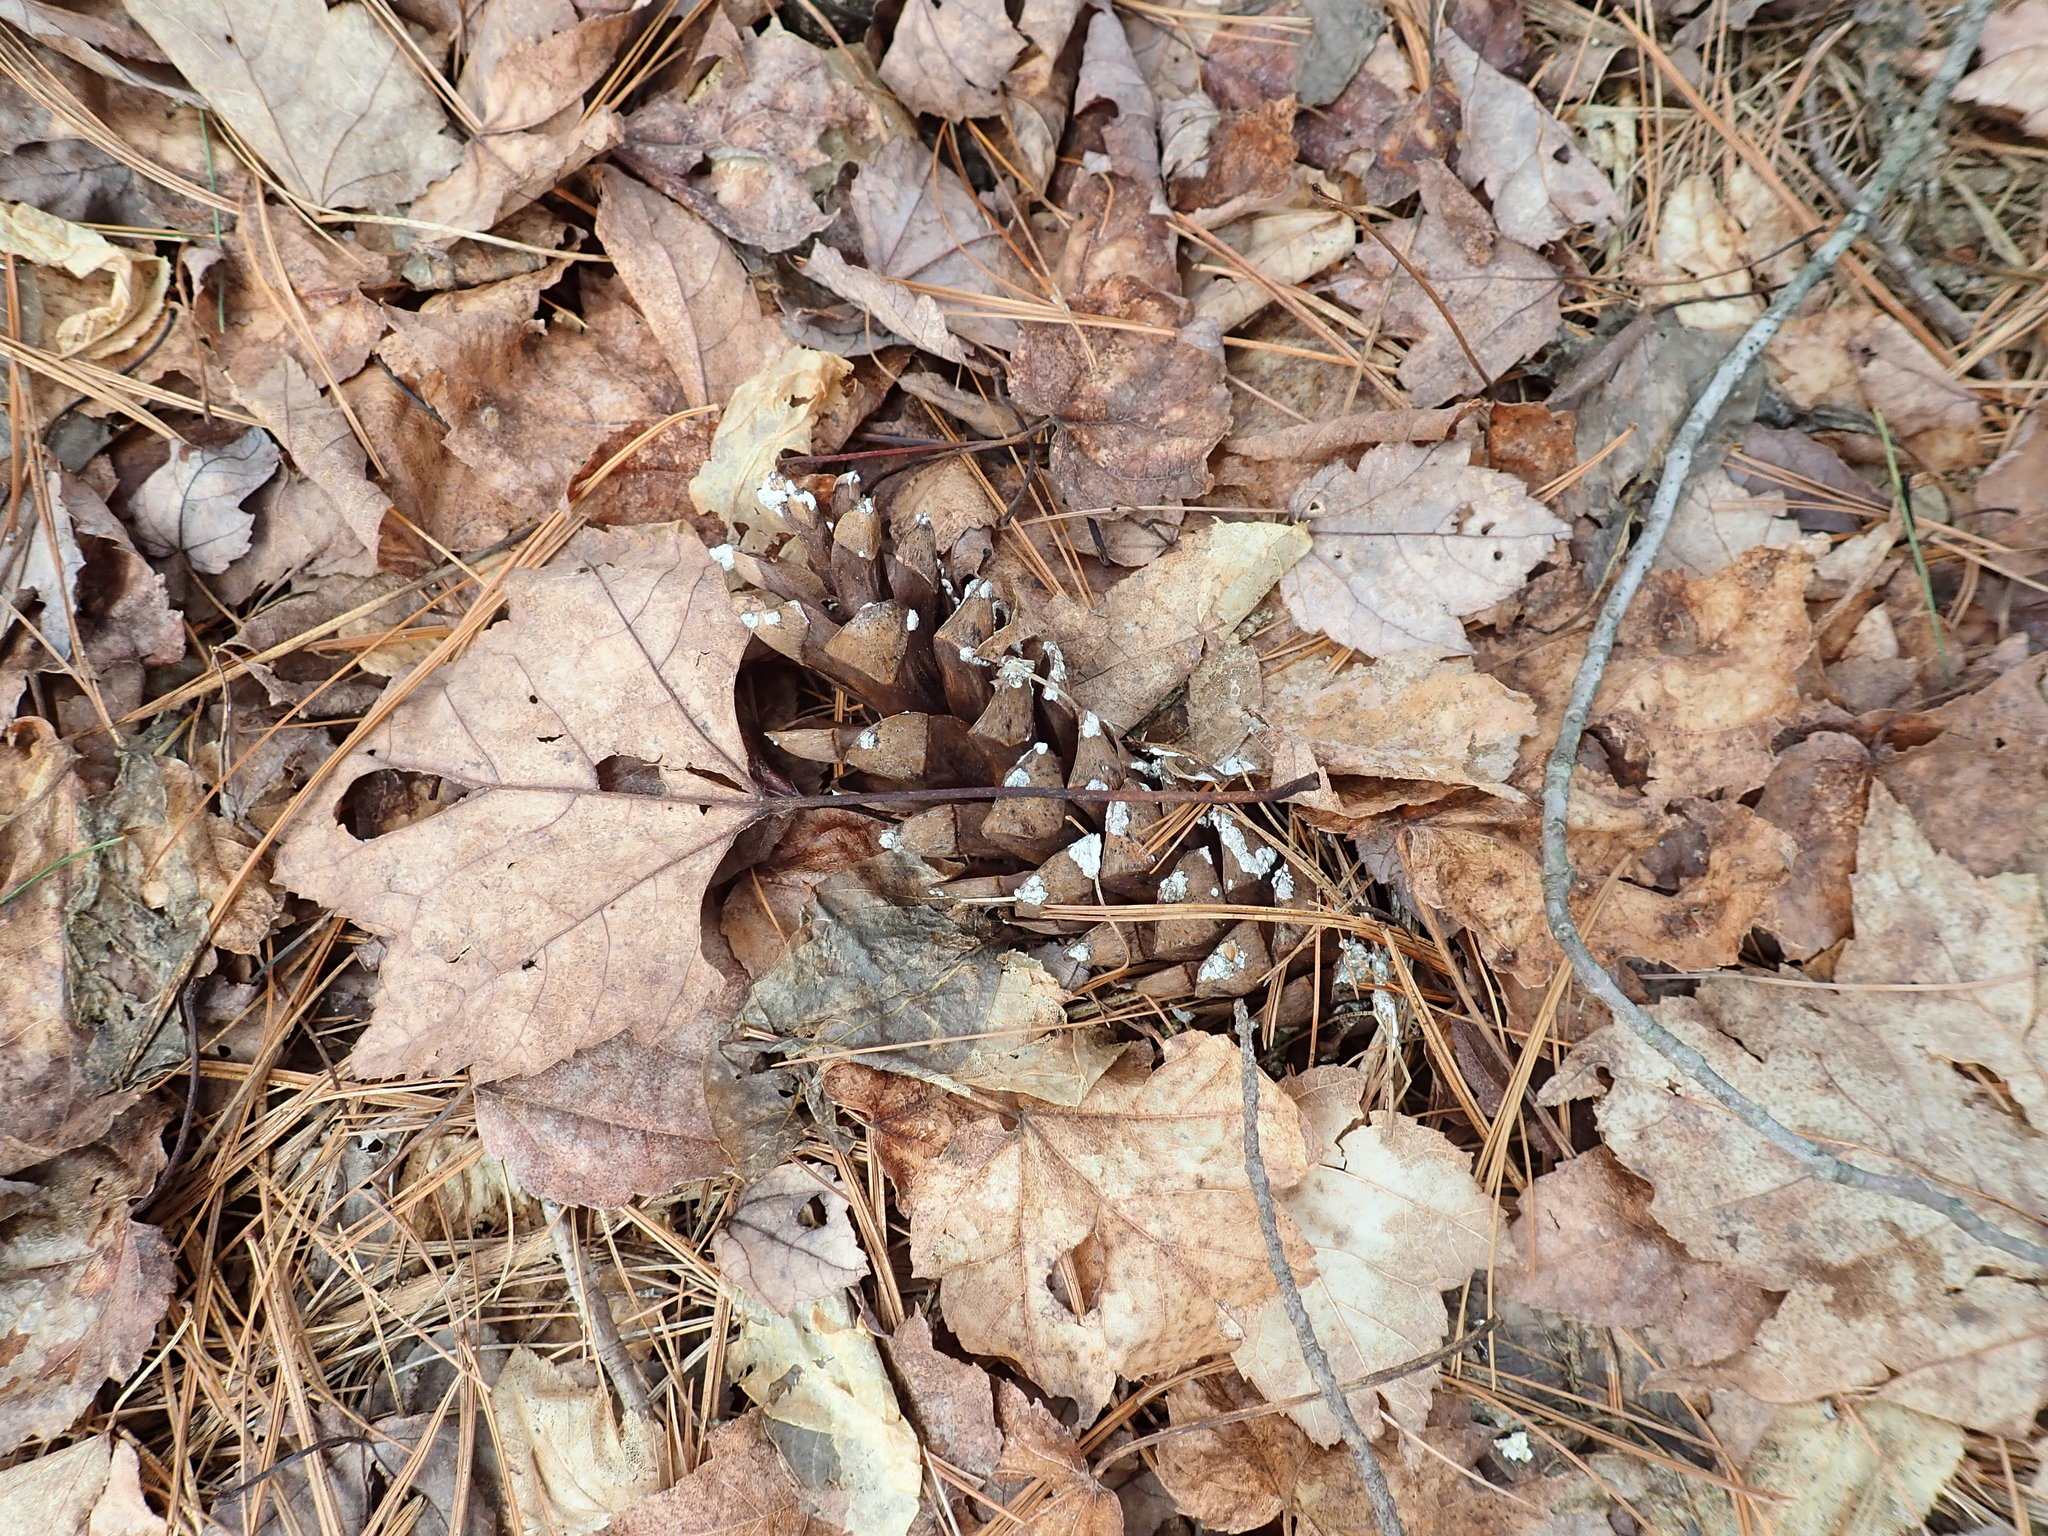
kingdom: Plantae
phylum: Tracheophyta
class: Pinopsida
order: Pinales
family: Pinaceae
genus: Pinus
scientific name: Pinus strobus
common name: Weymouth pine
